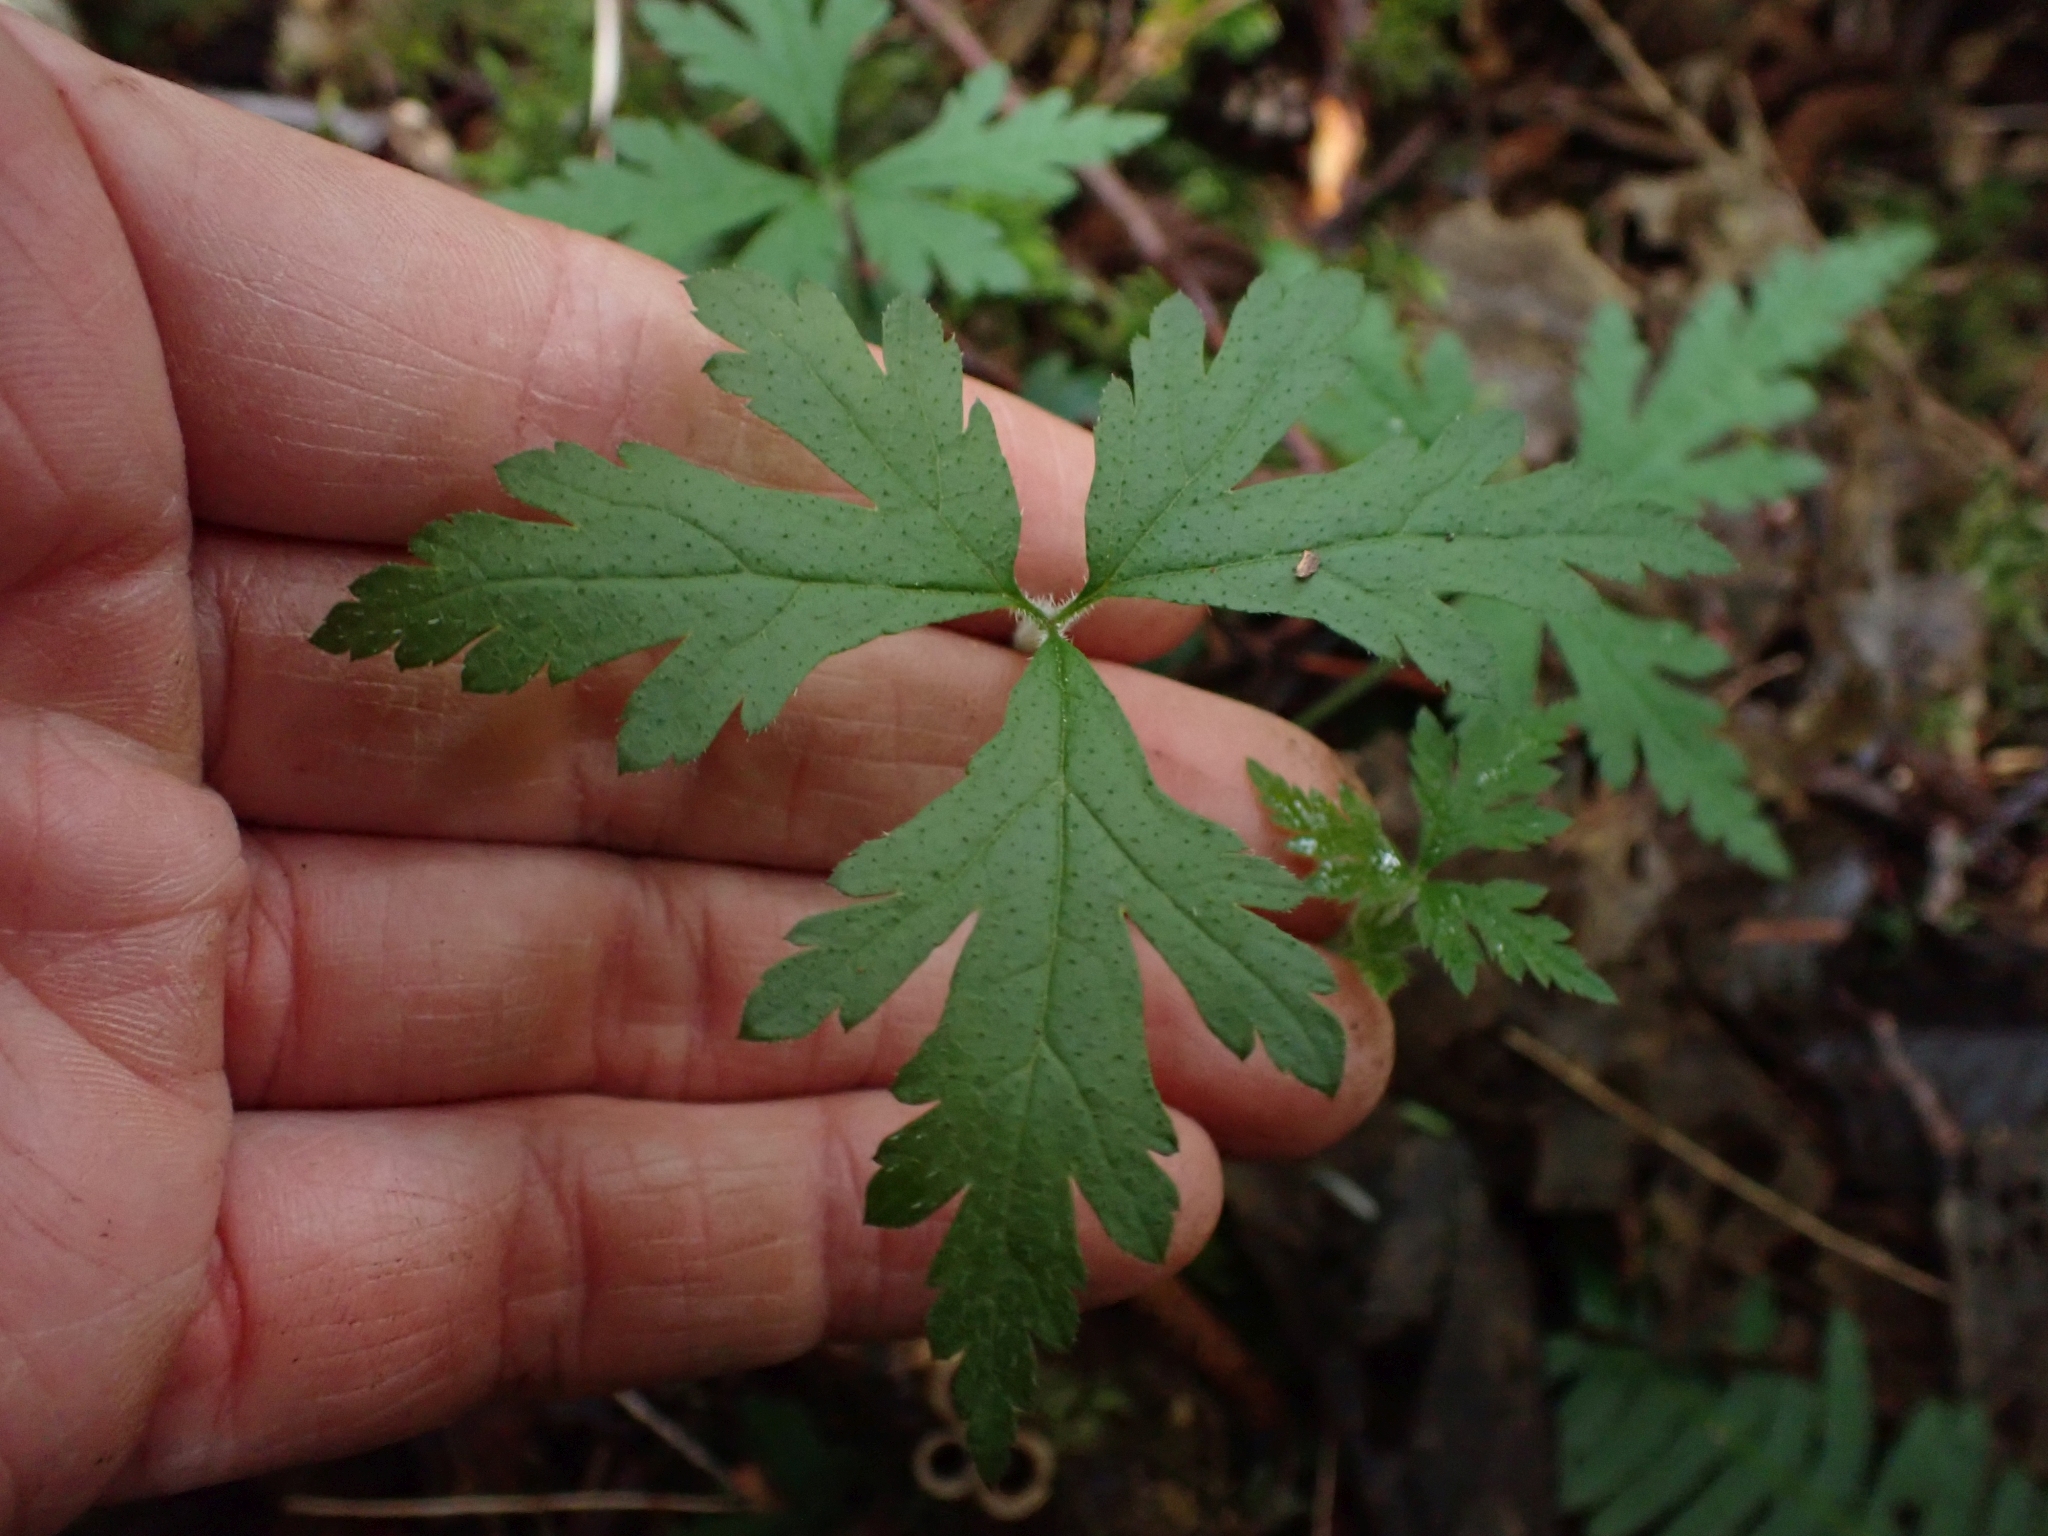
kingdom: Plantae
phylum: Tracheophyta
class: Magnoliopsida
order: Saxifragales
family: Saxifragaceae
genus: Tiarella
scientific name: Tiarella trifoliata
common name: Sugar-scoop
